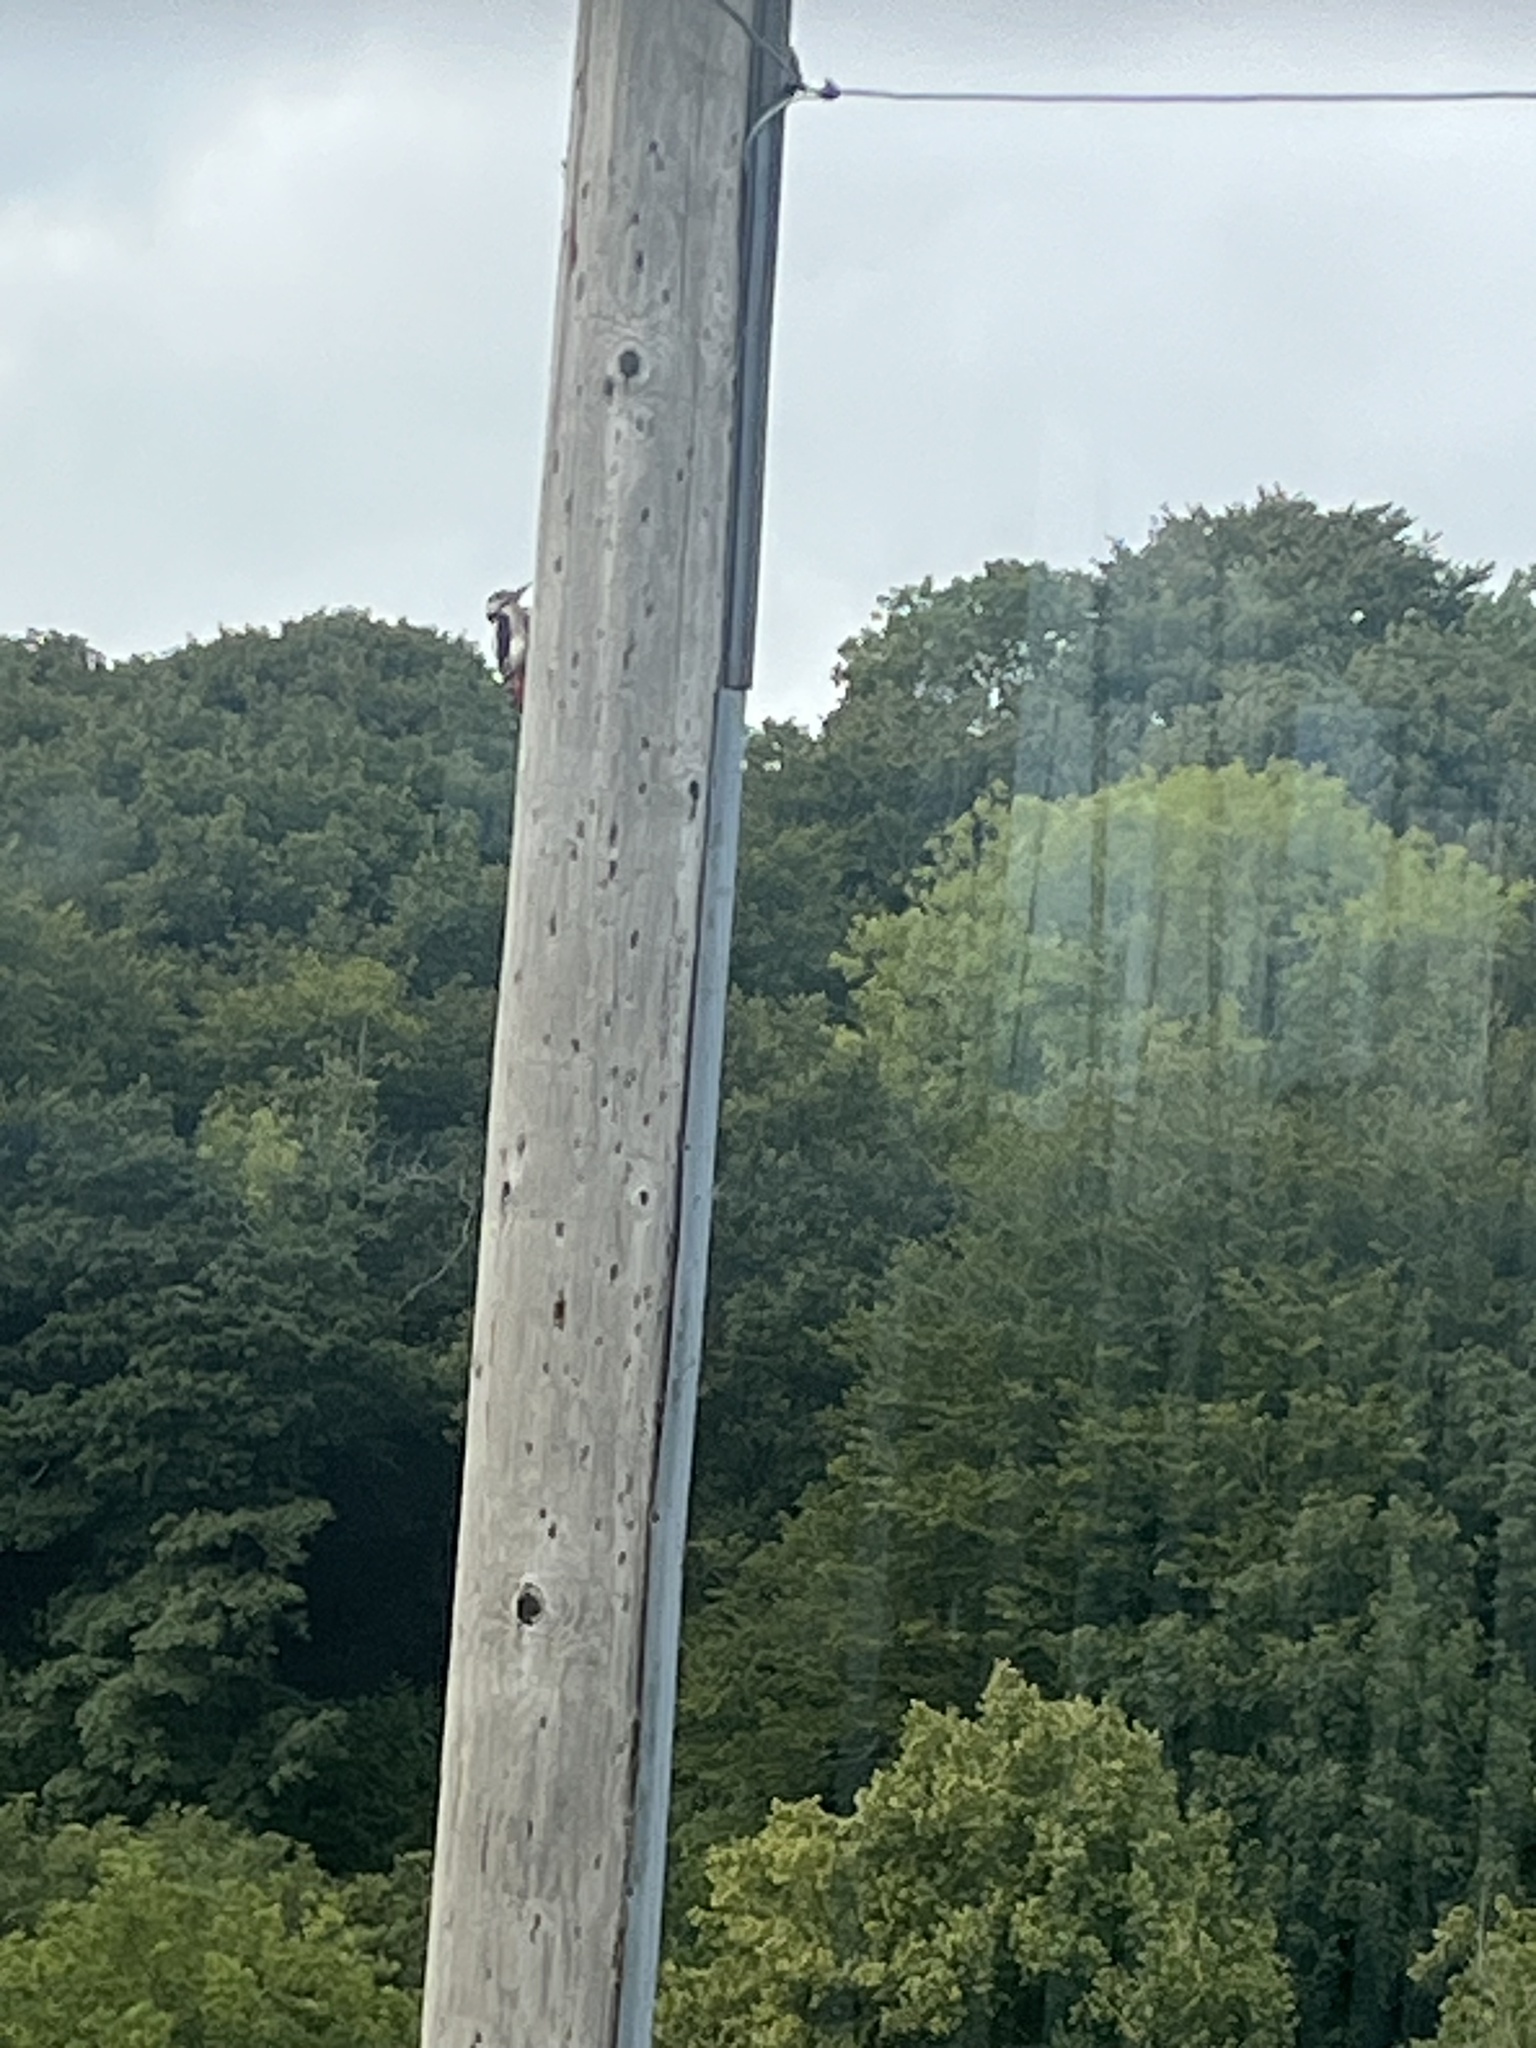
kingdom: Animalia
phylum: Chordata
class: Aves
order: Piciformes
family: Picidae
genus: Dendrocopos
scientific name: Dendrocopos major
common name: Great spotted woodpecker
